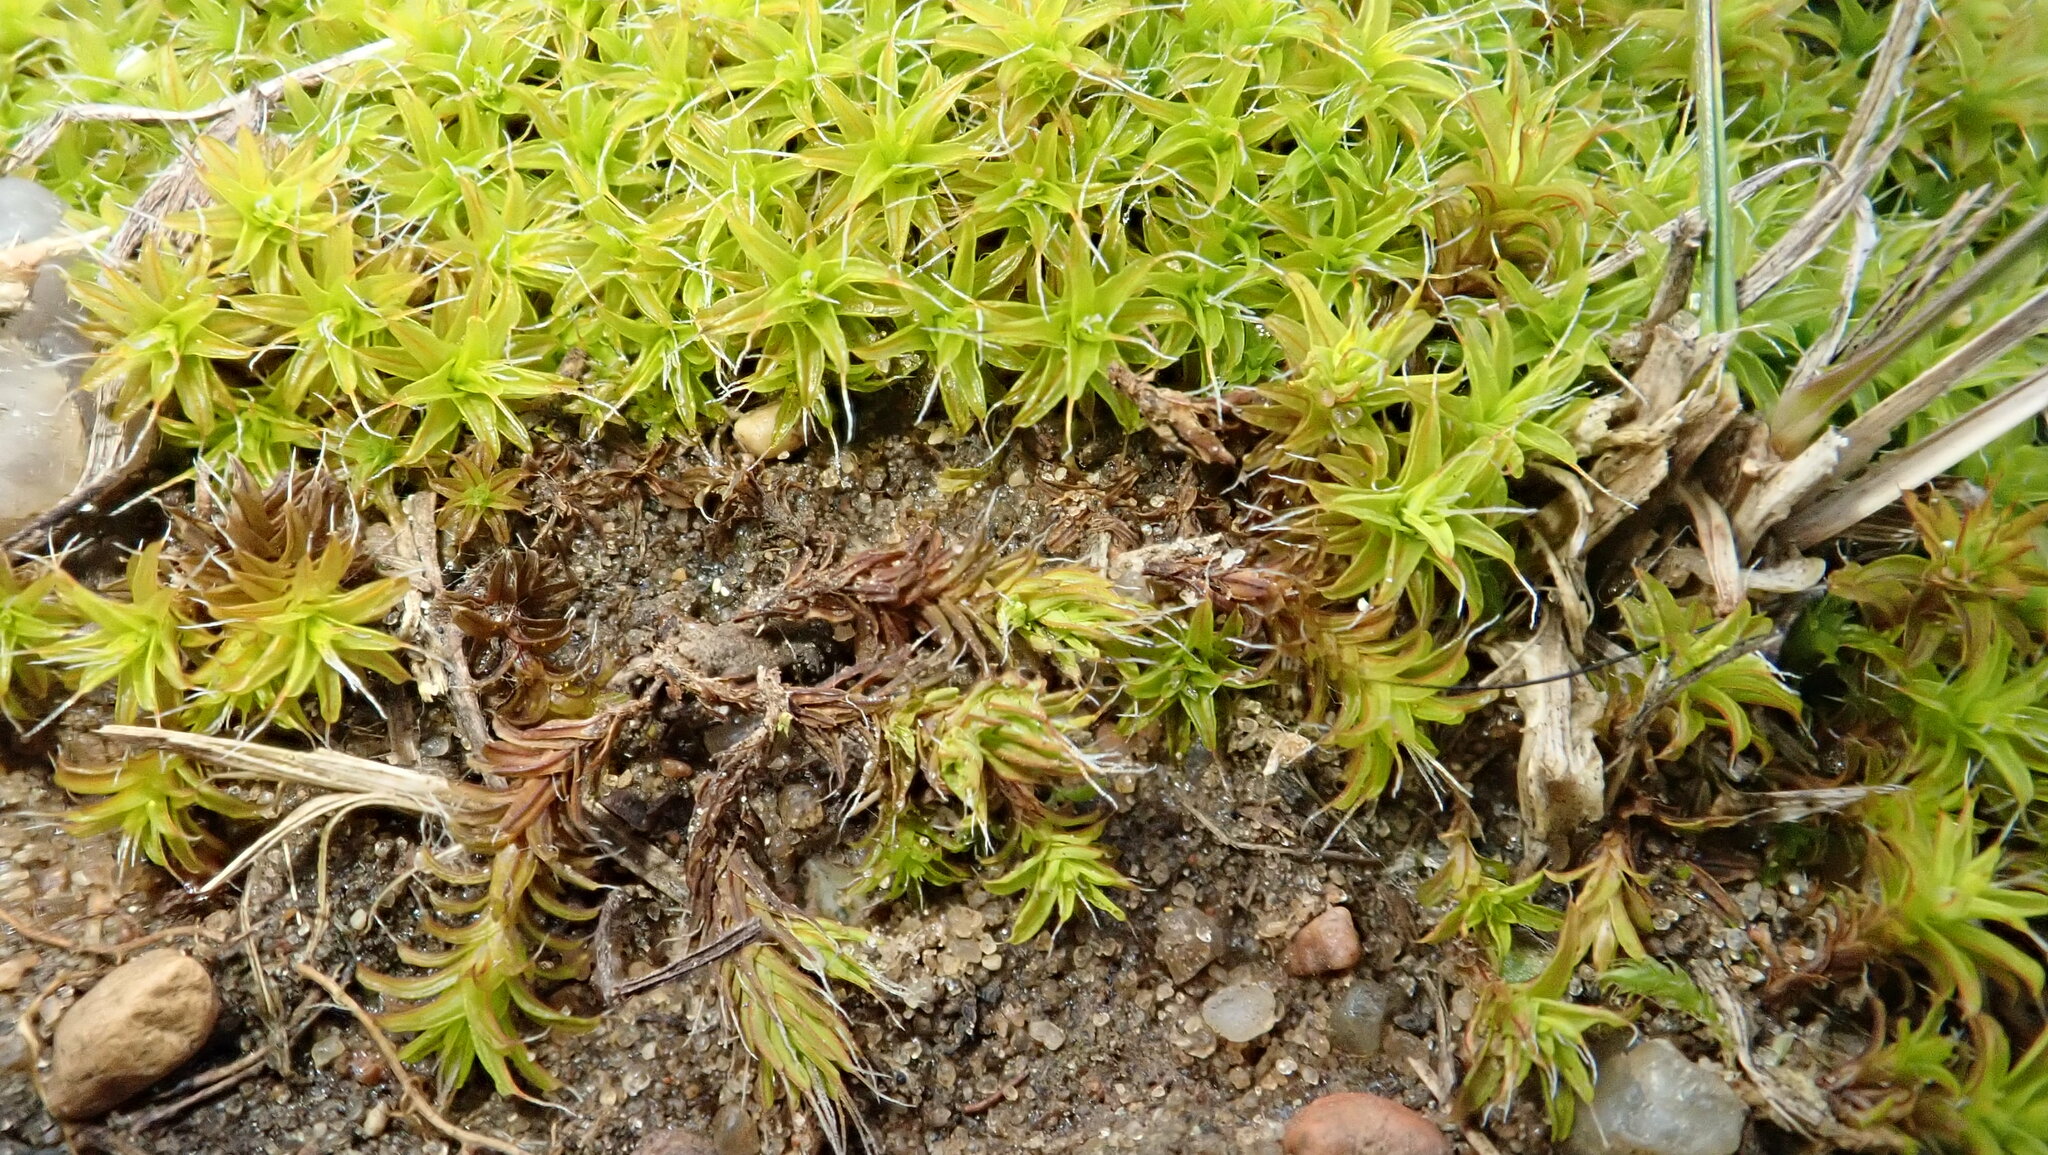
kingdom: Plantae
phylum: Bryophyta
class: Bryopsida
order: Pottiales
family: Pottiaceae
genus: Syntrichia
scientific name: Syntrichia ruralis
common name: Sidewalk screw moss
